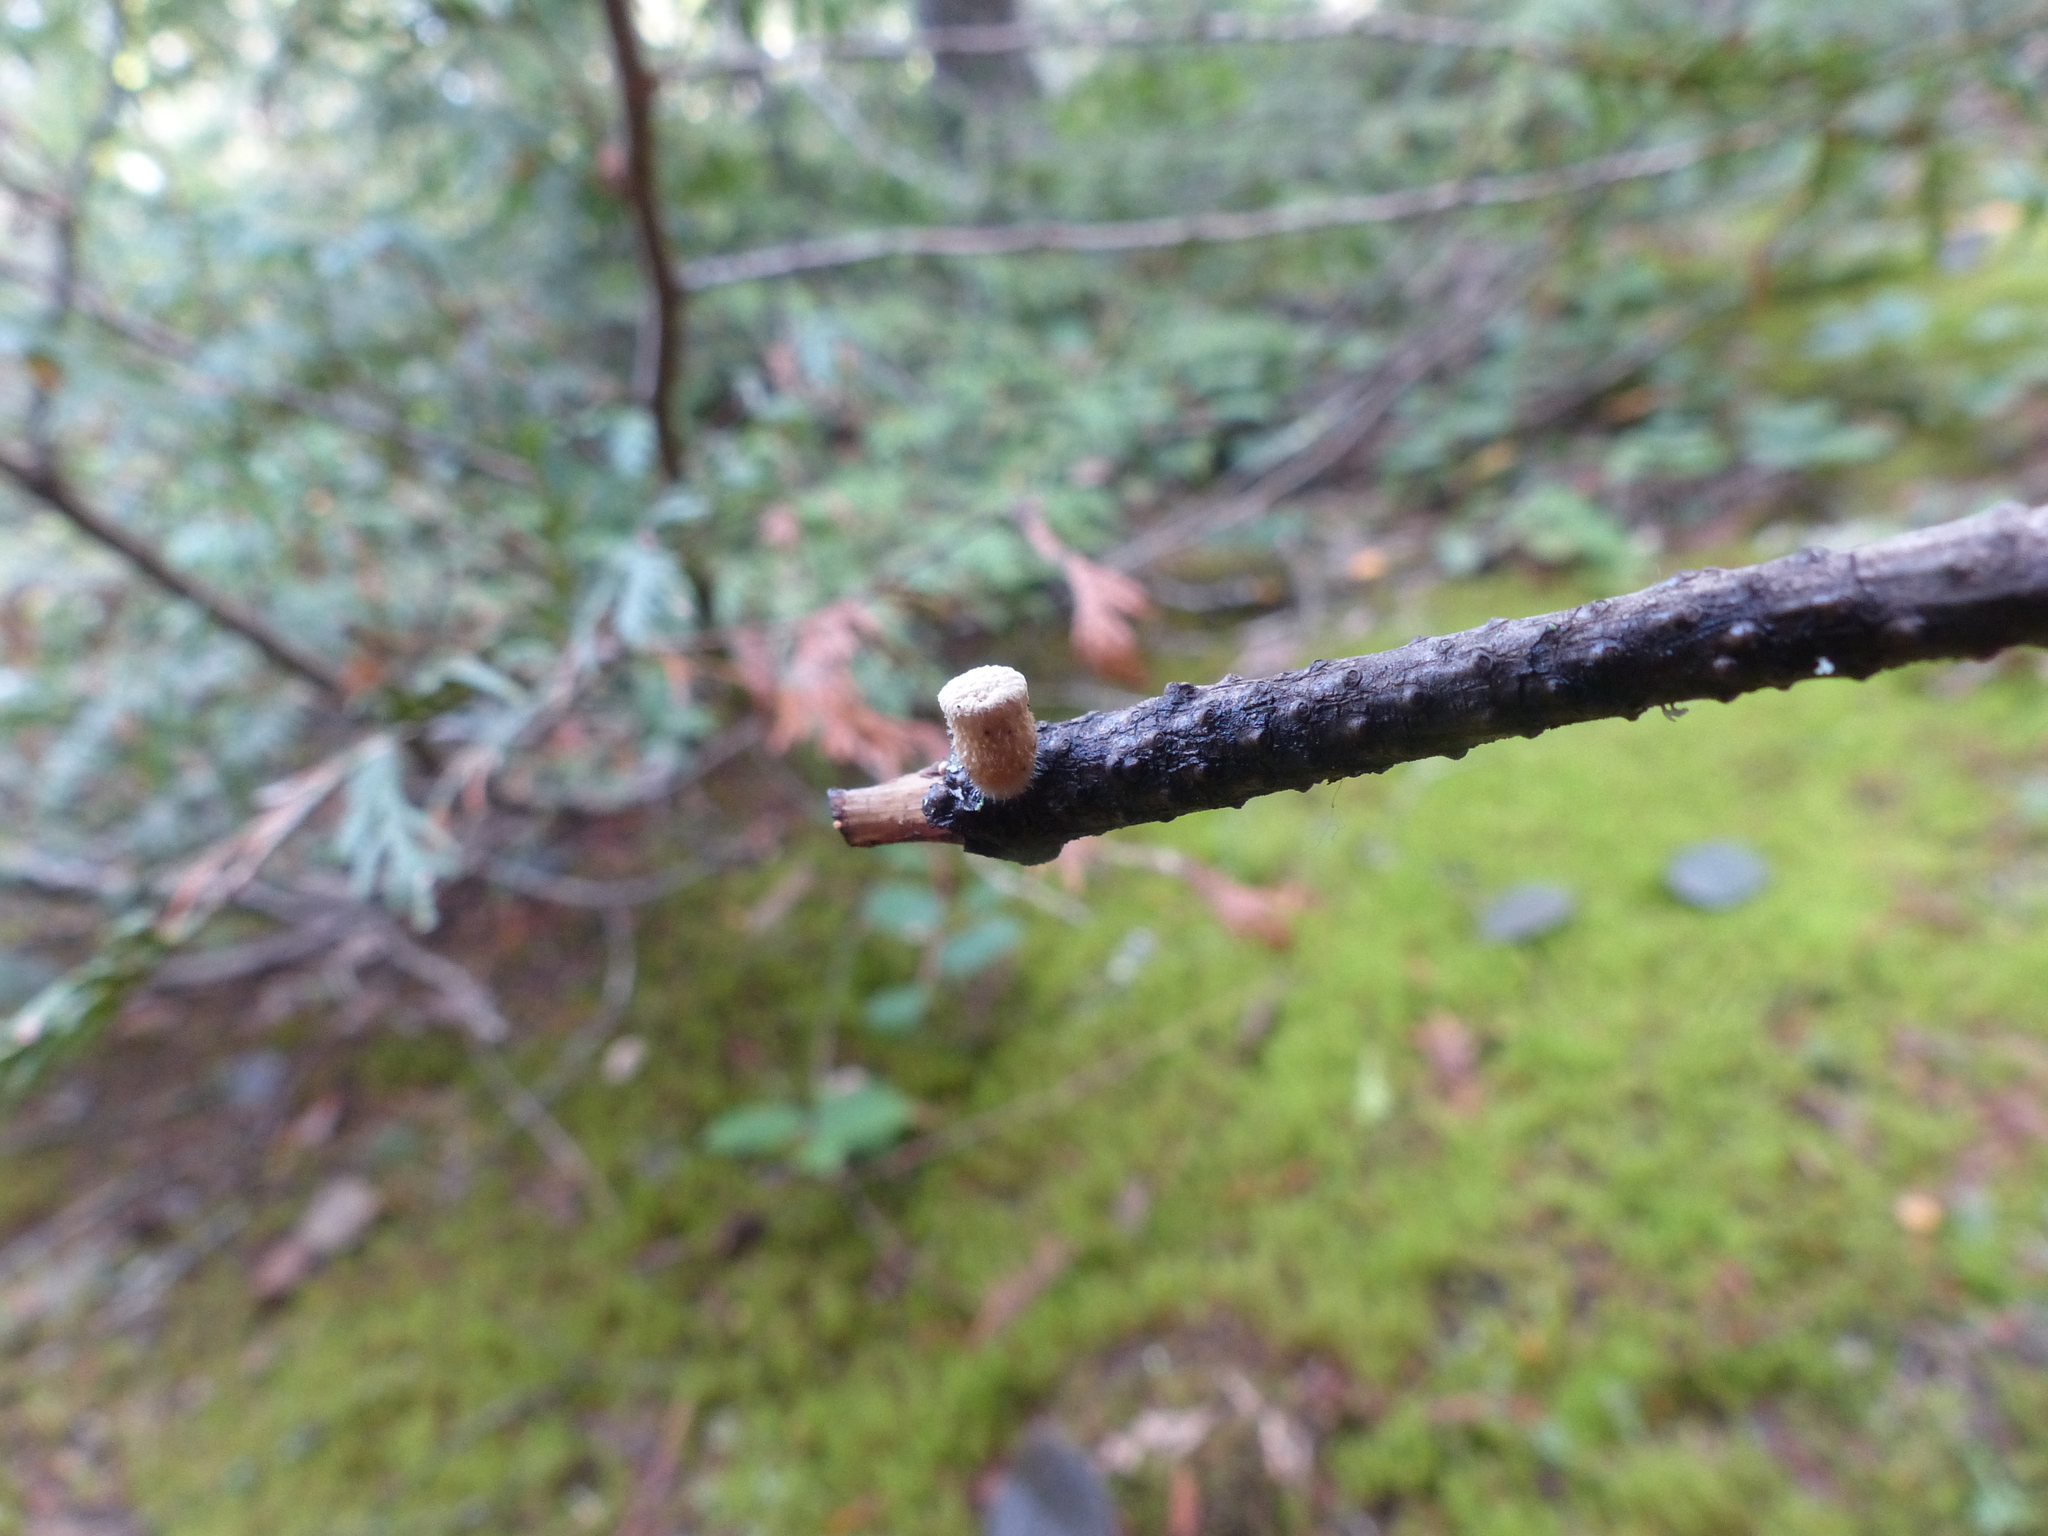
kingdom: Fungi
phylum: Basidiomycota
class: Agaricomycetes
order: Agaricales
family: Agaricaceae
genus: Nidula
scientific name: Nidula niveotomentosa
